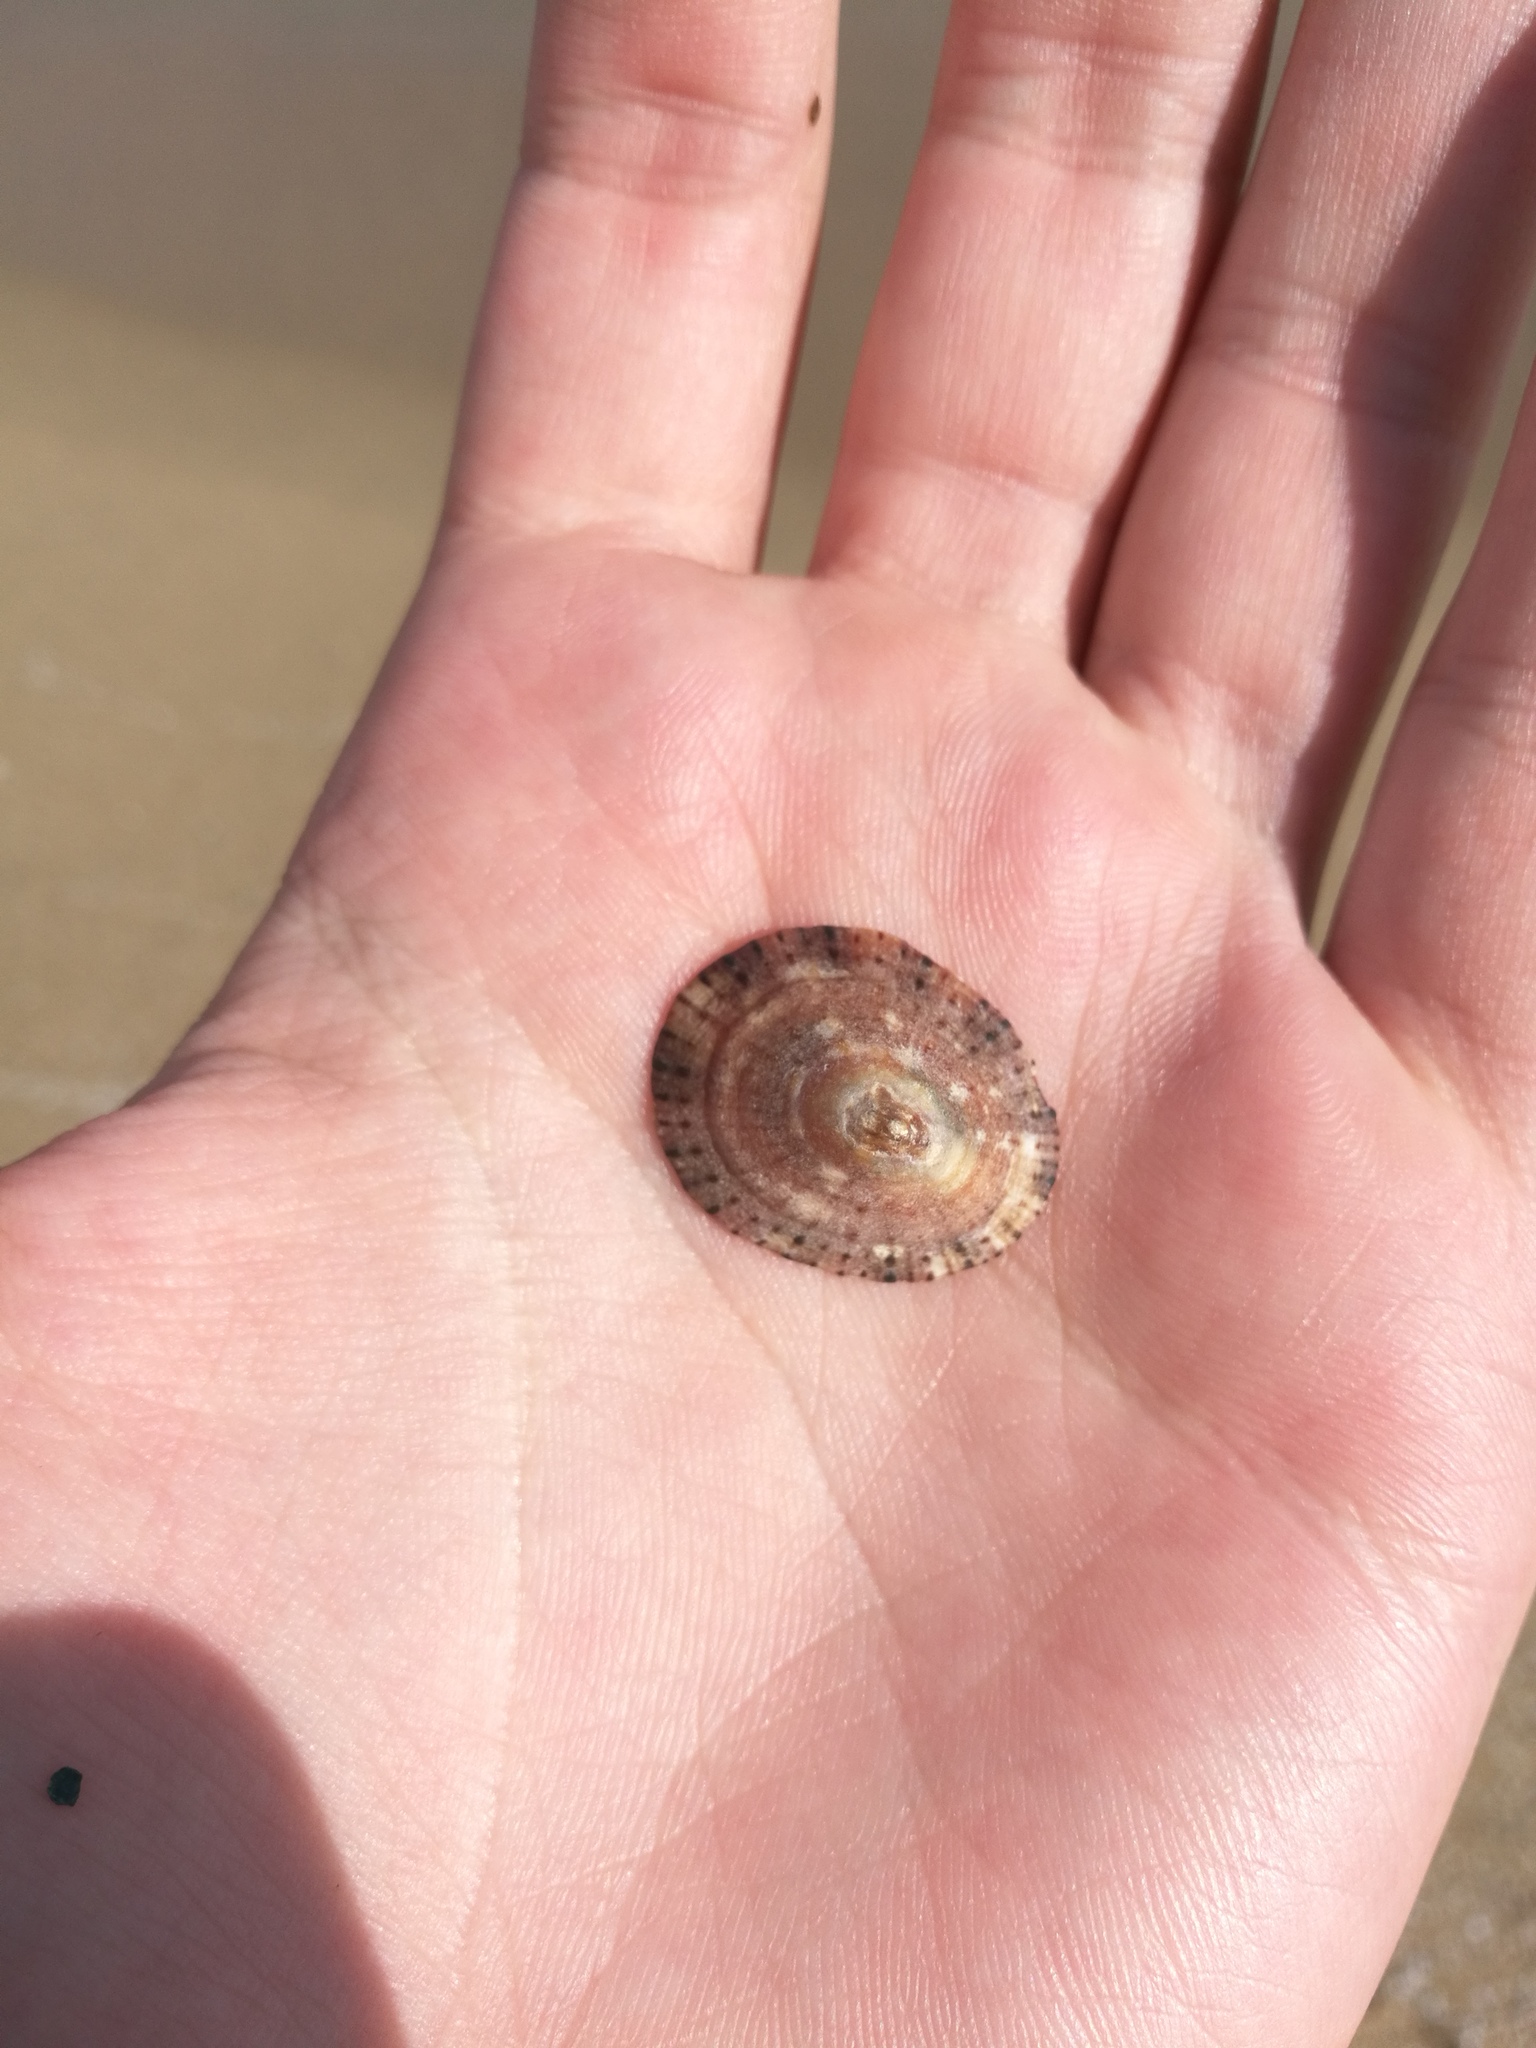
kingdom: Animalia
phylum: Mollusca
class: Gastropoda
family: Patellidae
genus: Patella
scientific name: Patella rustica
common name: Lusitanian limpet
